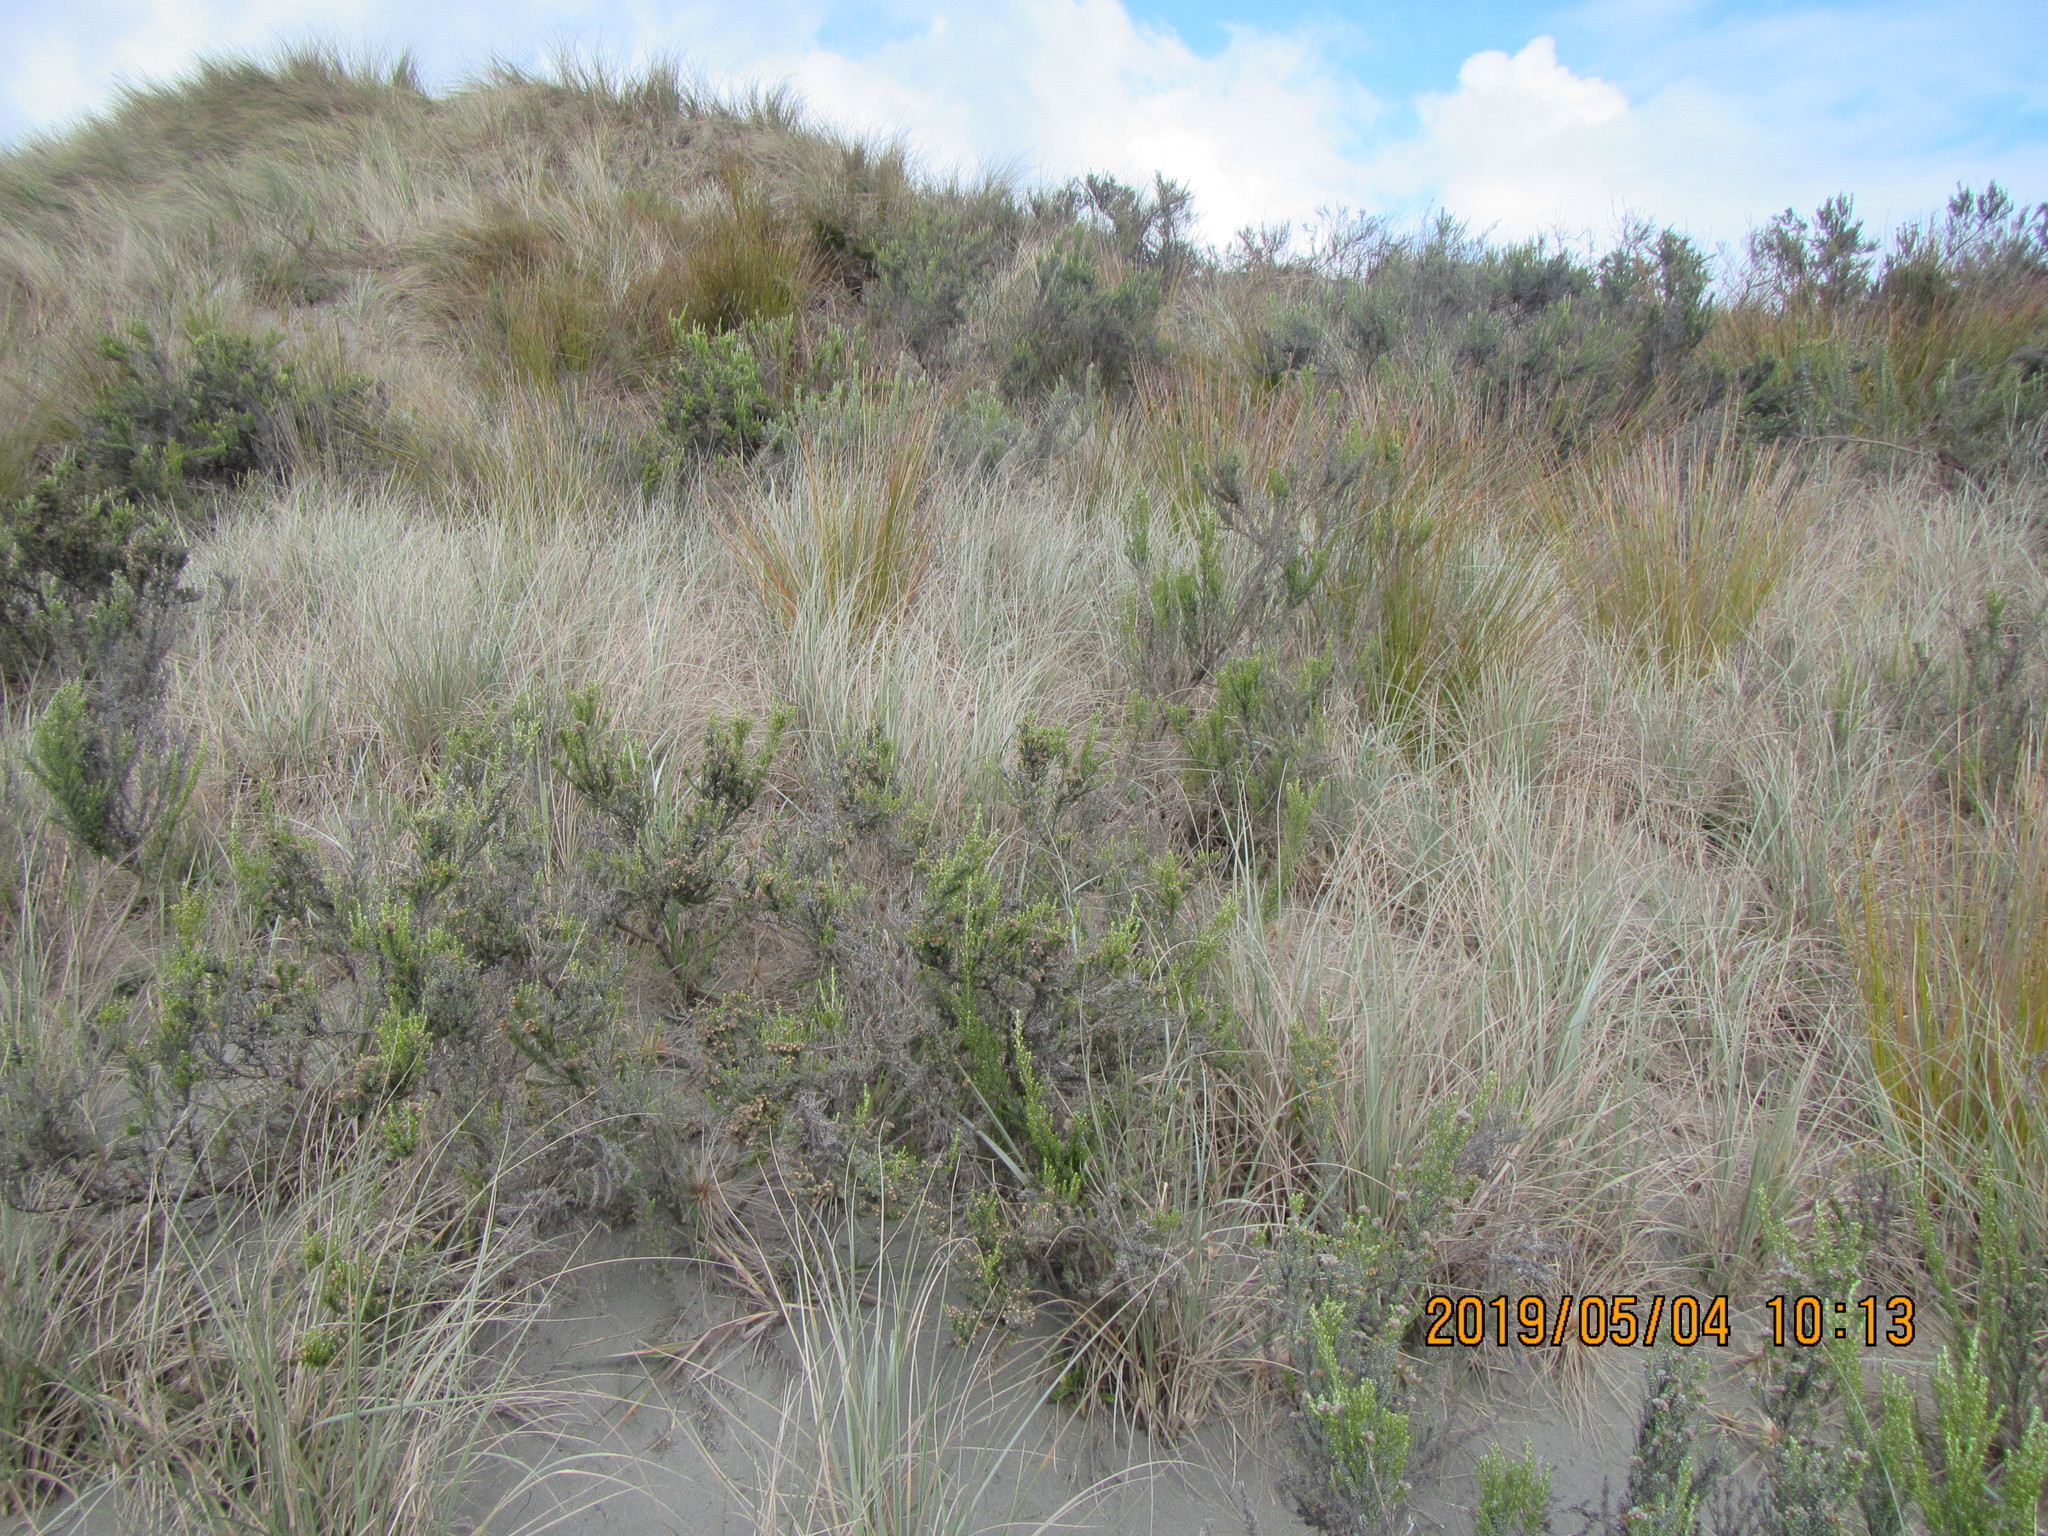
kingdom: Plantae
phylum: Tracheophyta
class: Magnoliopsida
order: Asterales
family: Asteraceae
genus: Ozothamnus
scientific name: Ozothamnus leptophyllus
